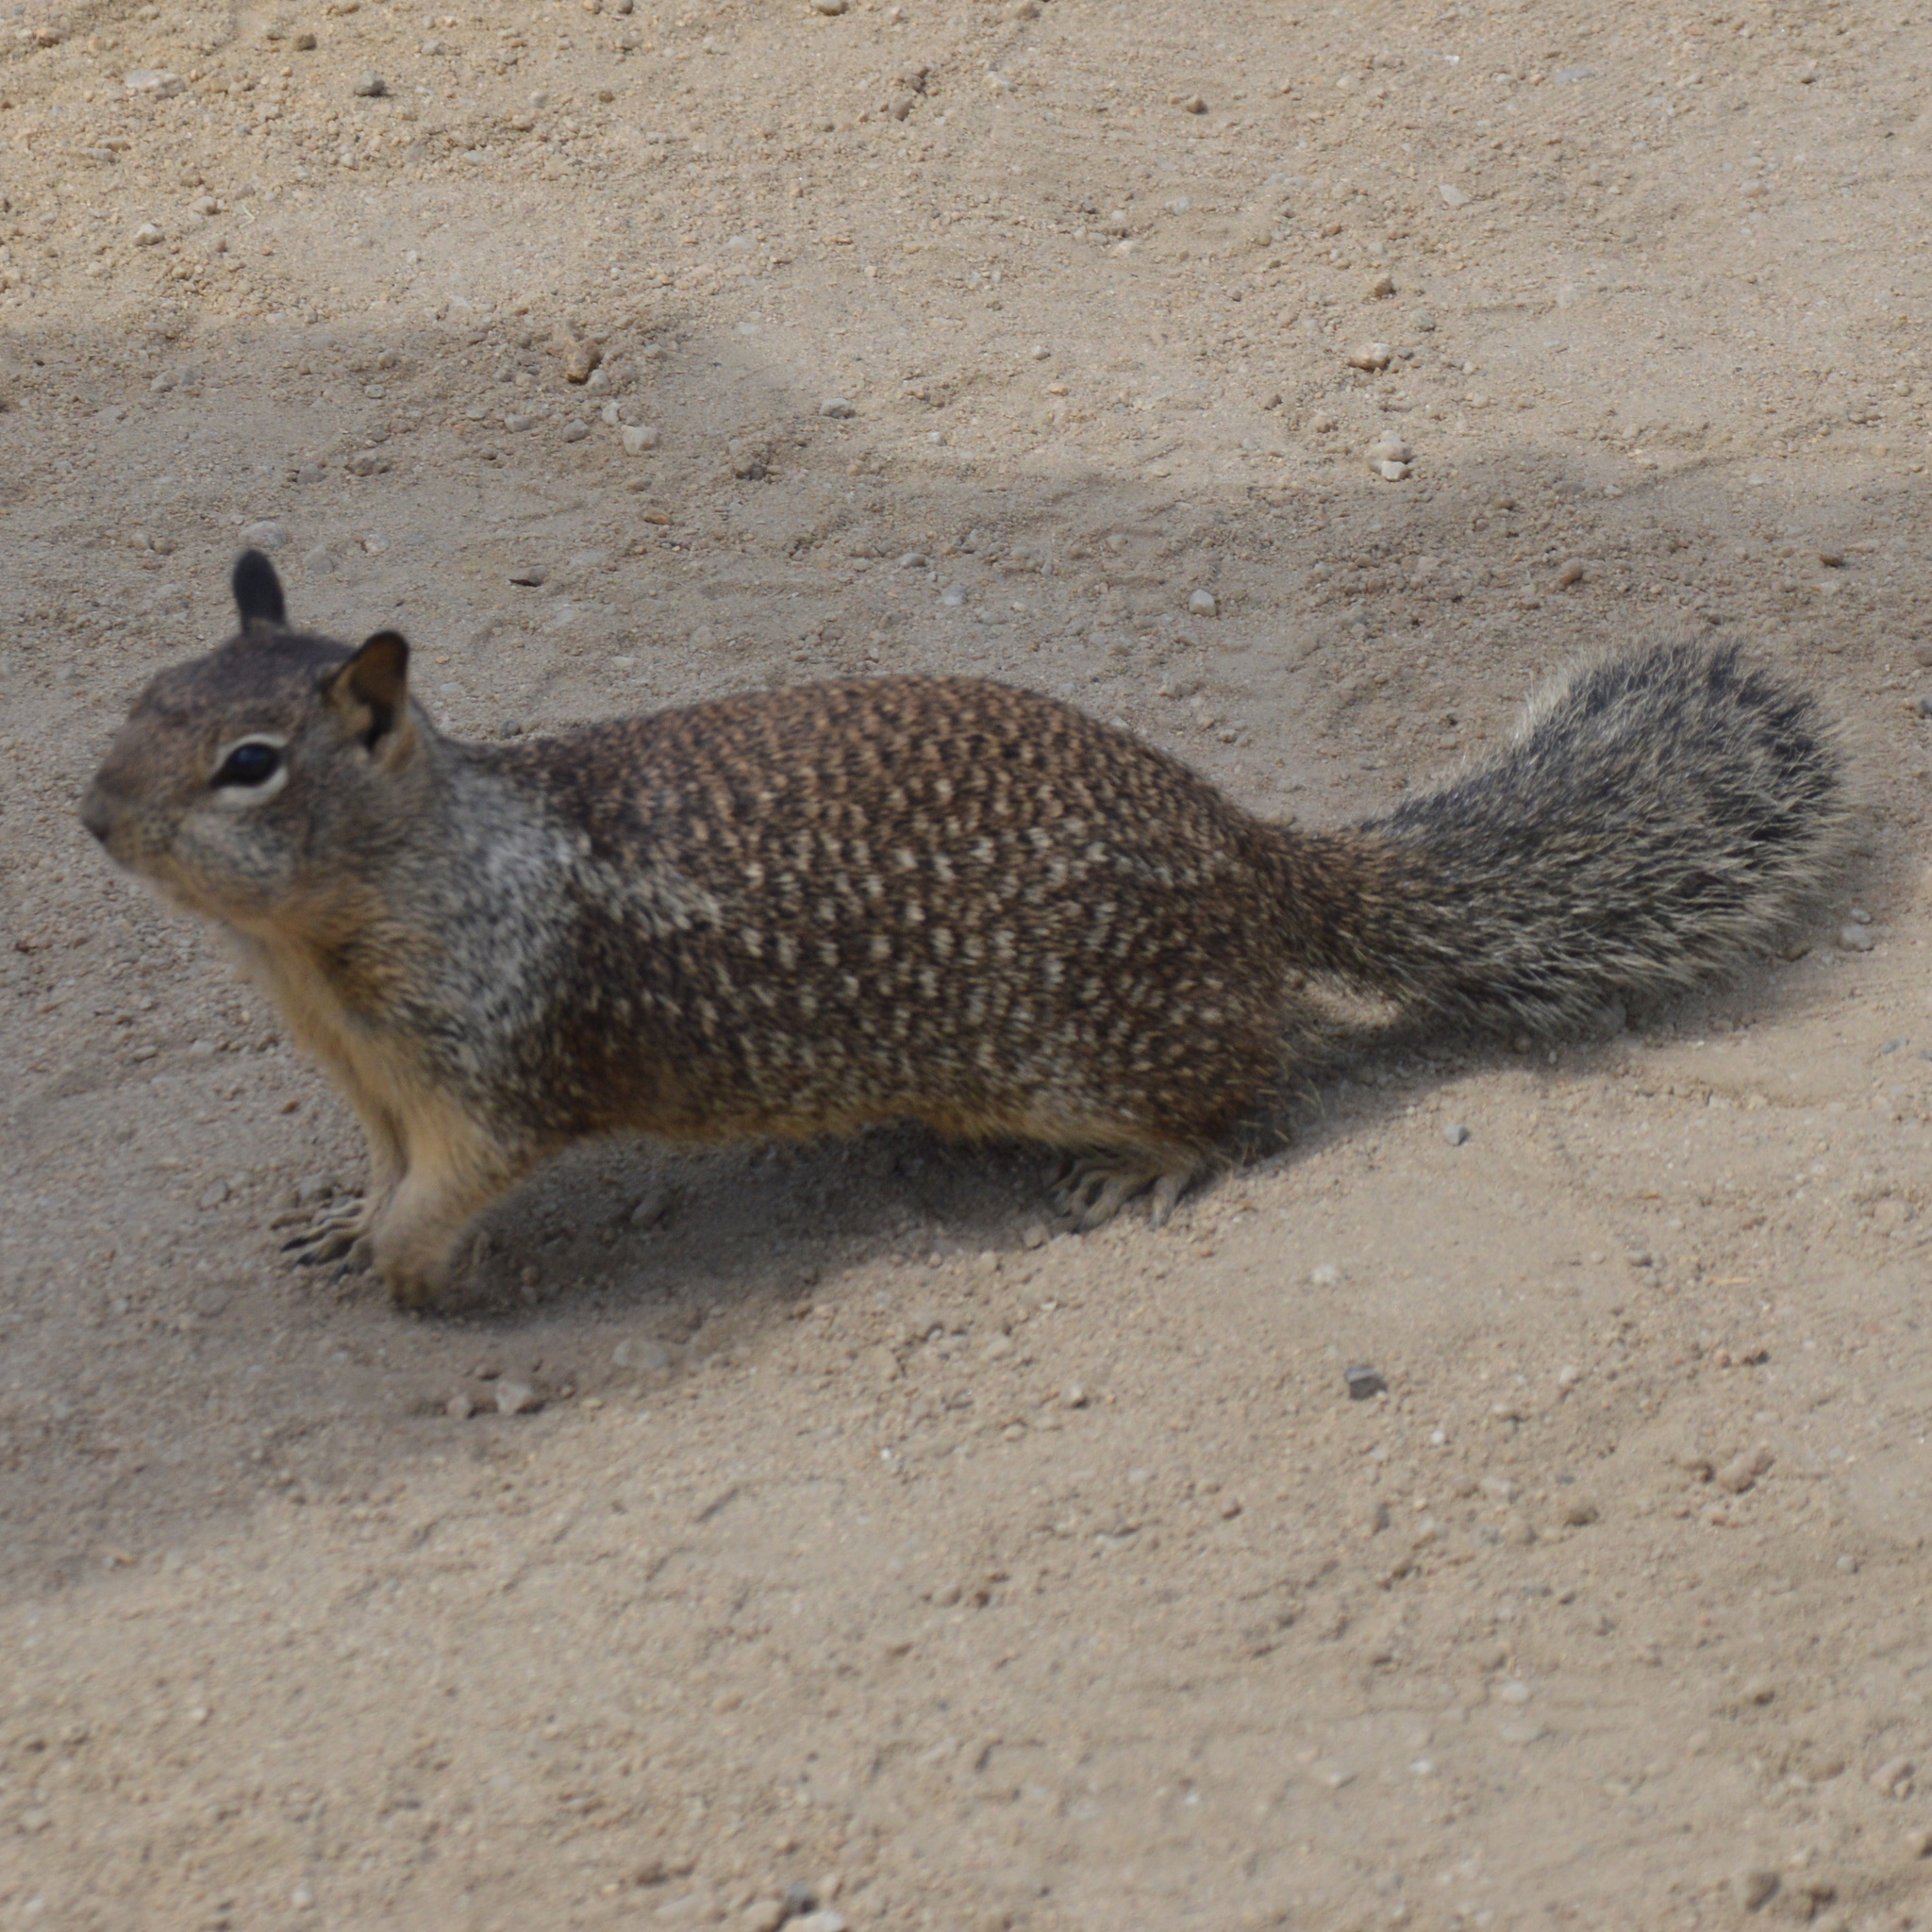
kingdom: Animalia
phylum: Chordata
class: Mammalia
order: Rodentia
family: Sciuridae
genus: Otospermophilus
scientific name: Otospermophilus beecheyi
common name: California ground squirrel
